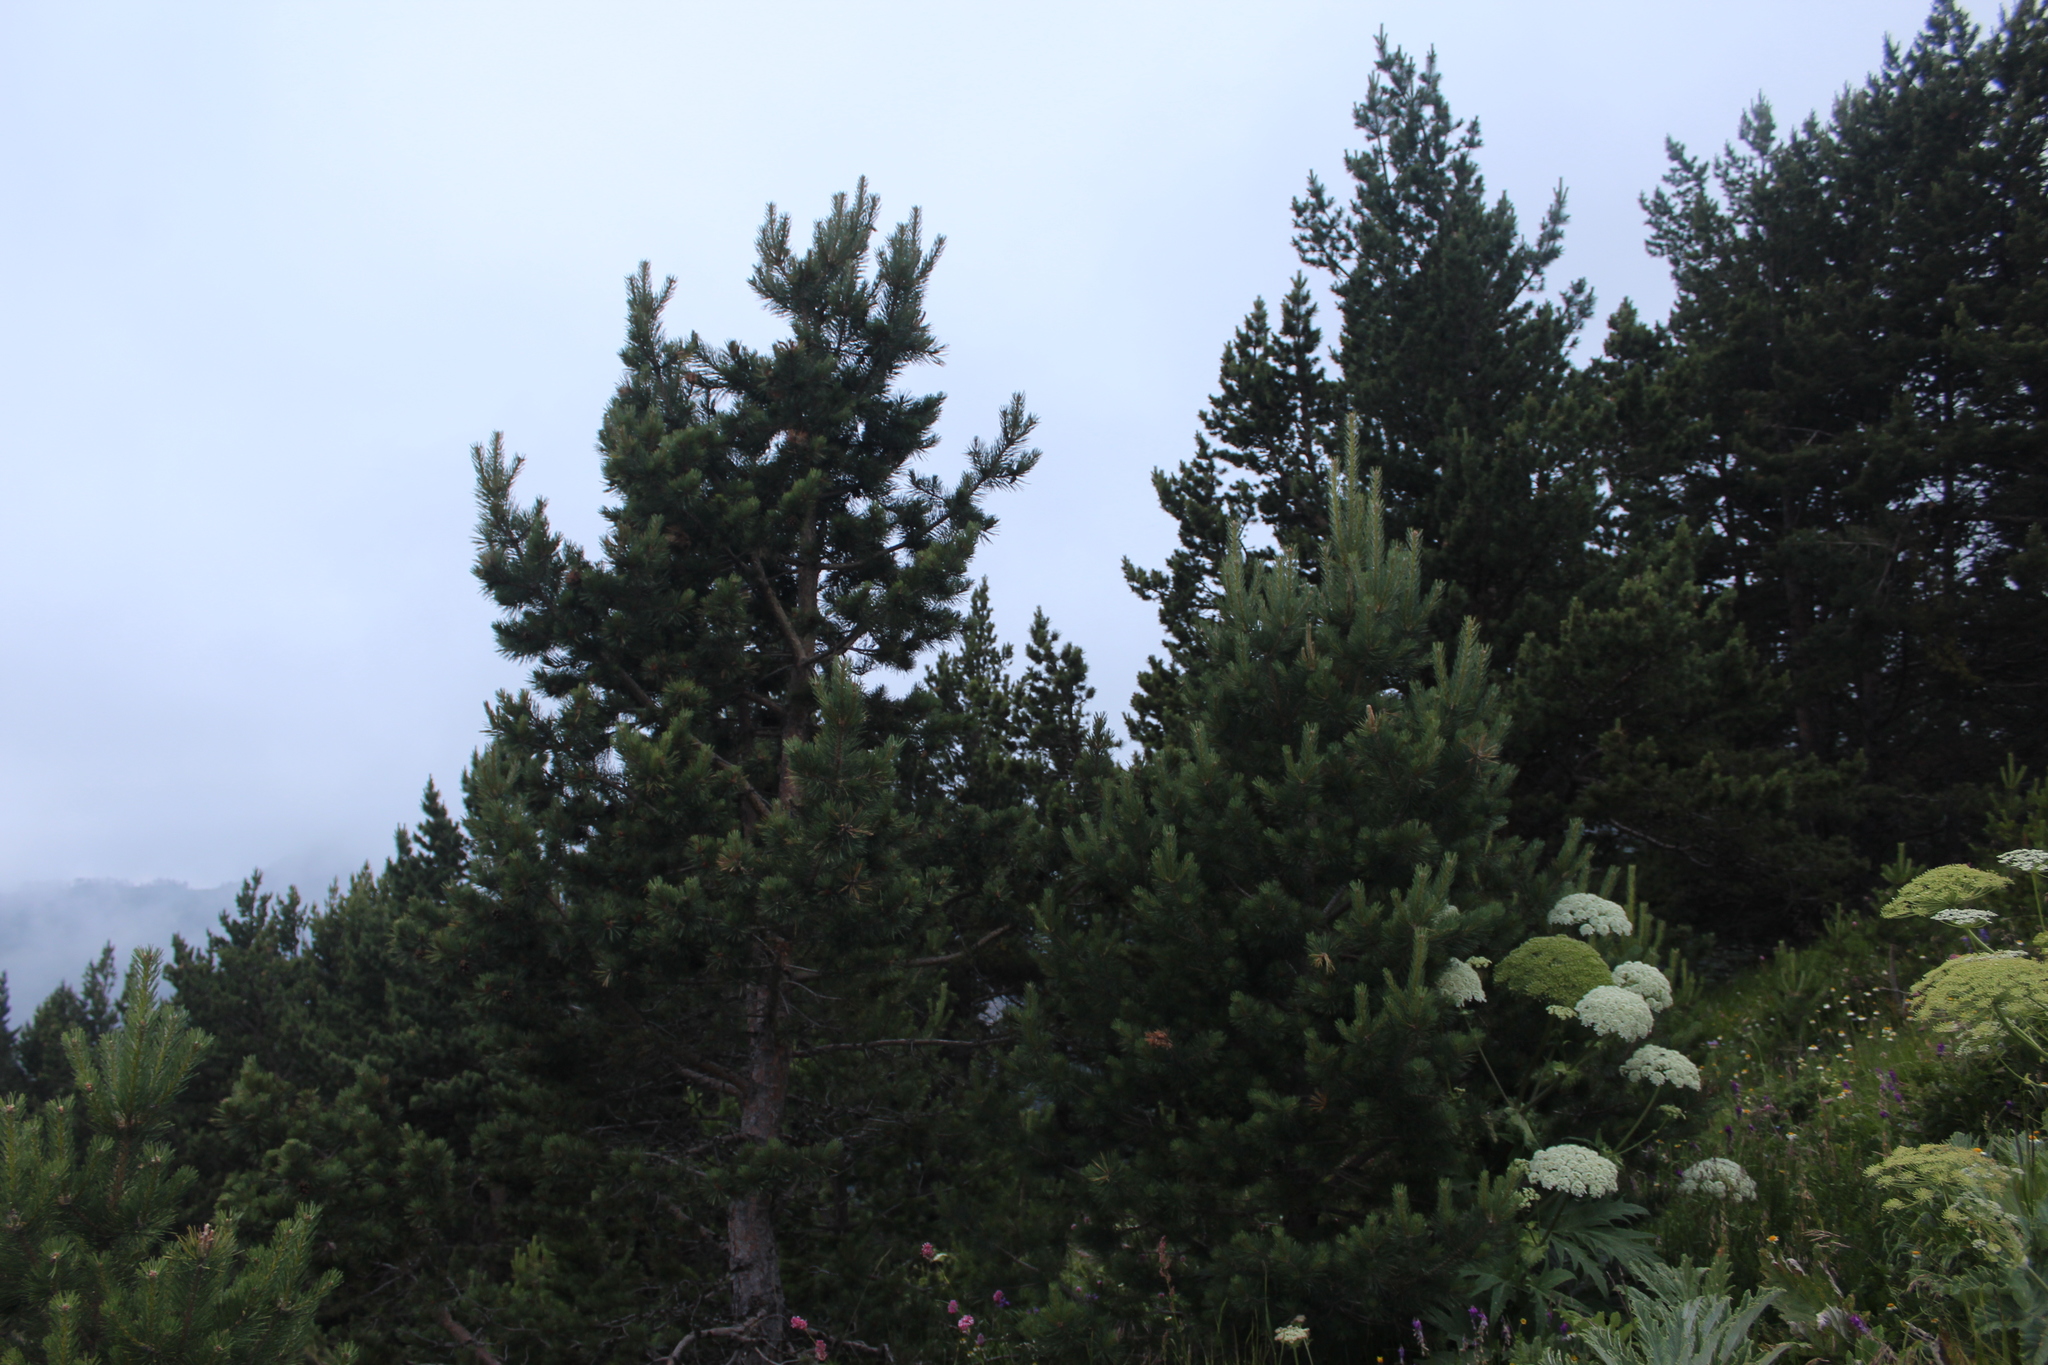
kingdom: Plantae
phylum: Tracheophyta
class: Pinopsida
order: Pinales
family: Pinaceae
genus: Pinus
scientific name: Pinus sylvestris
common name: Scots pine
